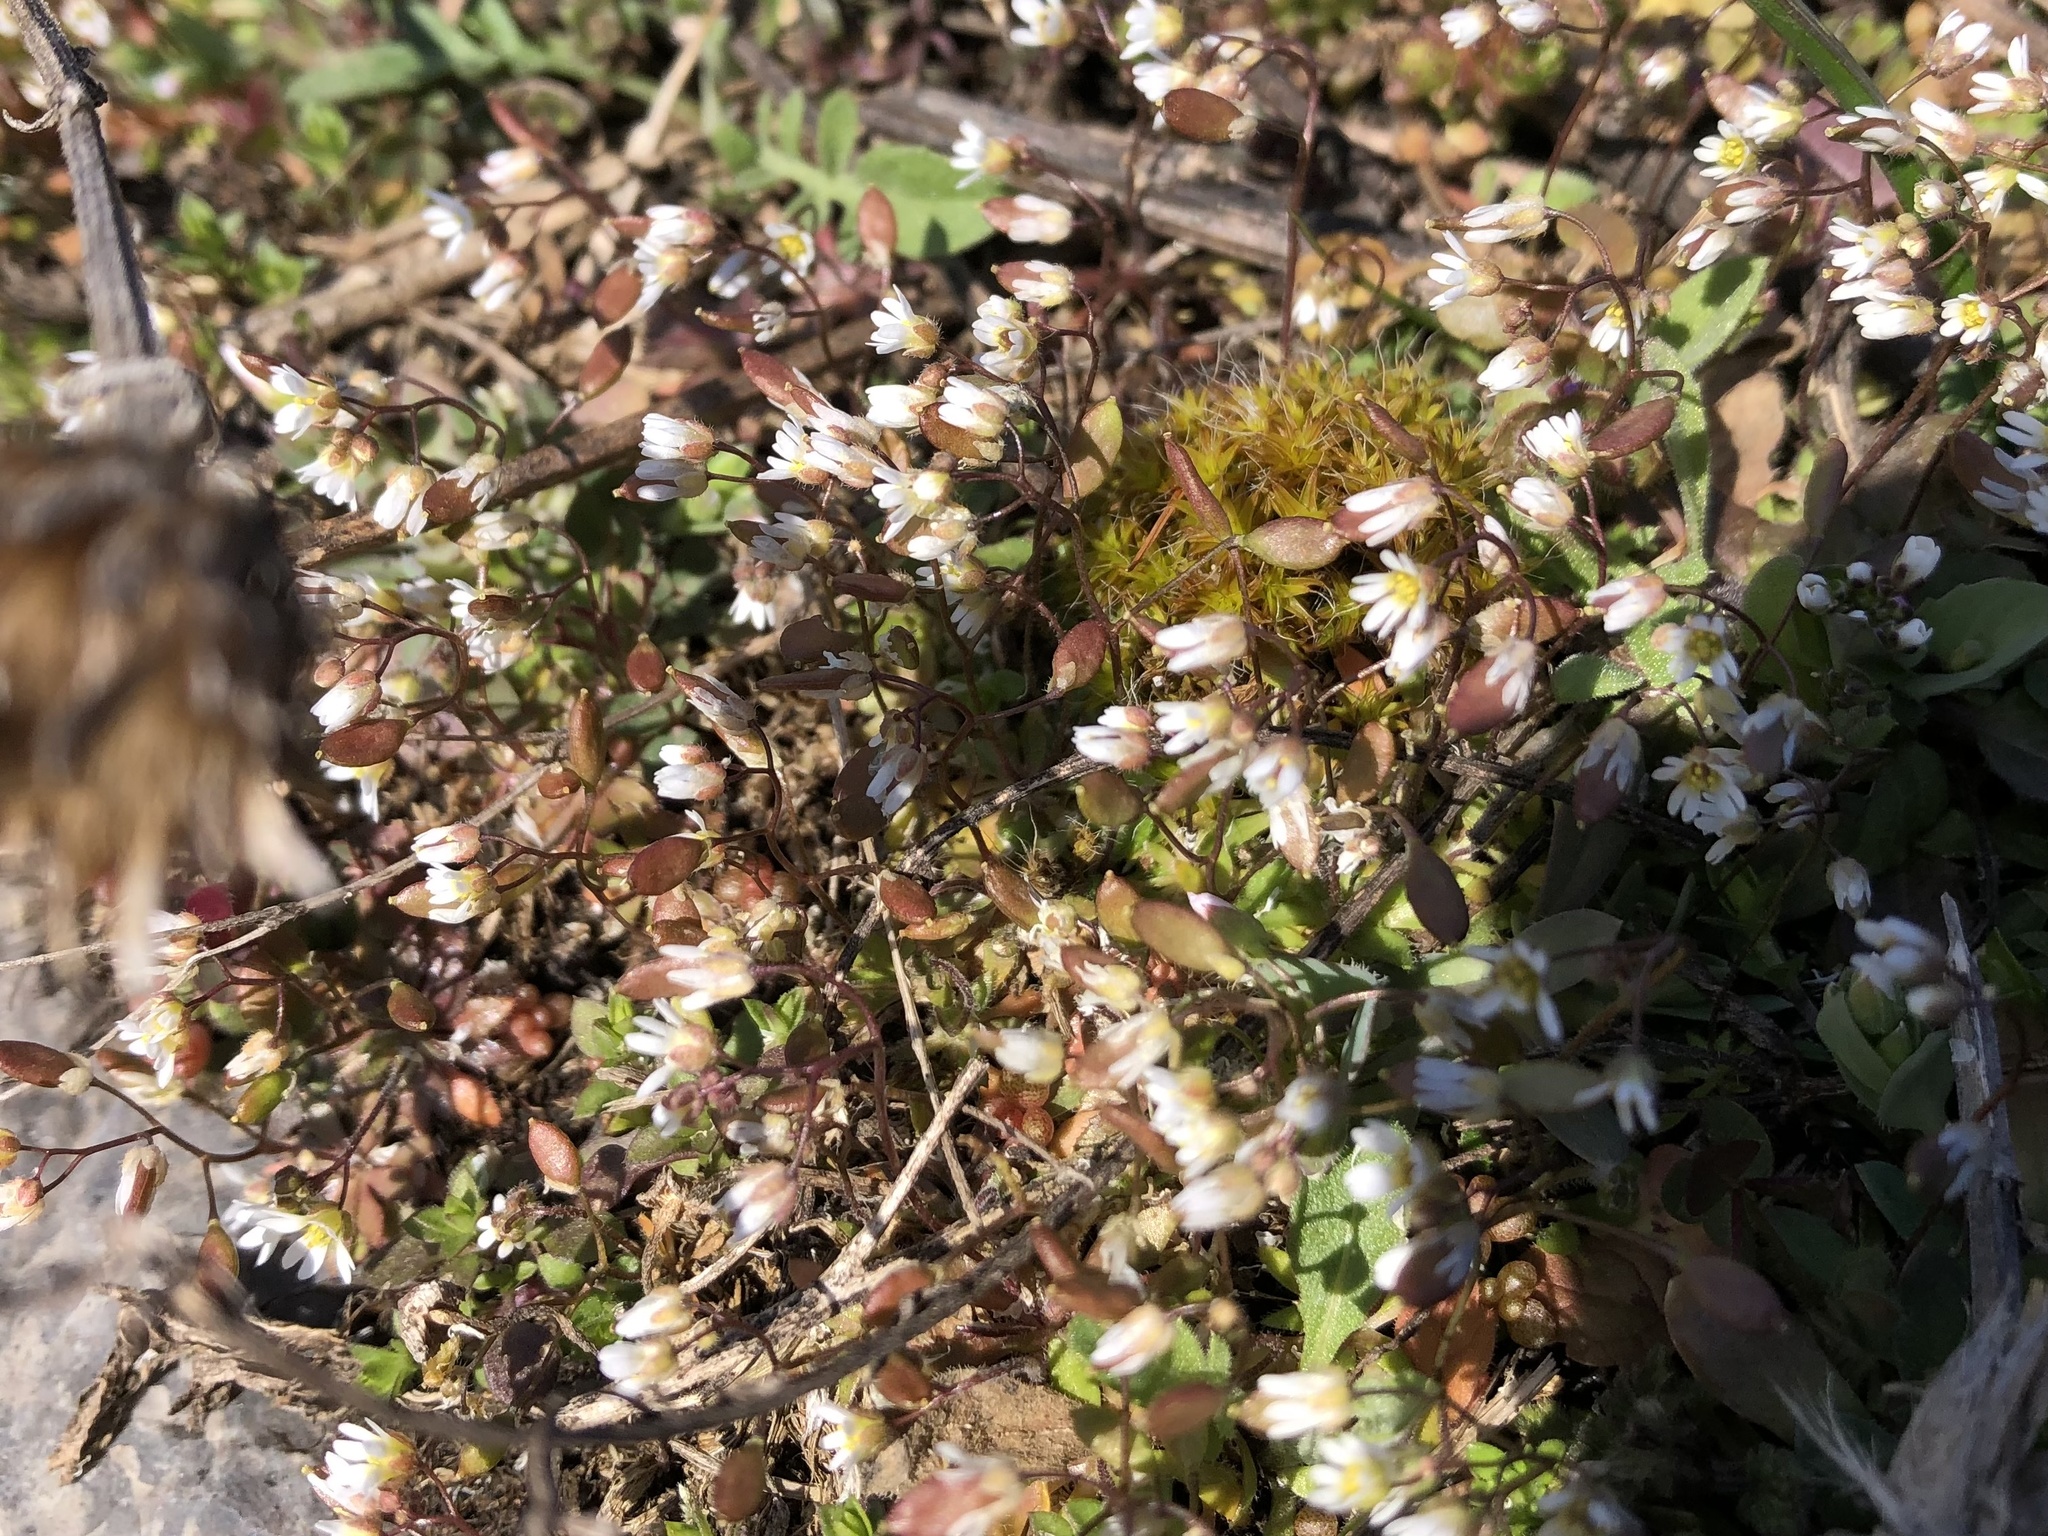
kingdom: Plantae
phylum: Tracheophyta
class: Magnoliopsida
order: Brassicales
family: Brassicaceae
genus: Draba
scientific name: Draba verna
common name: Spring draba
